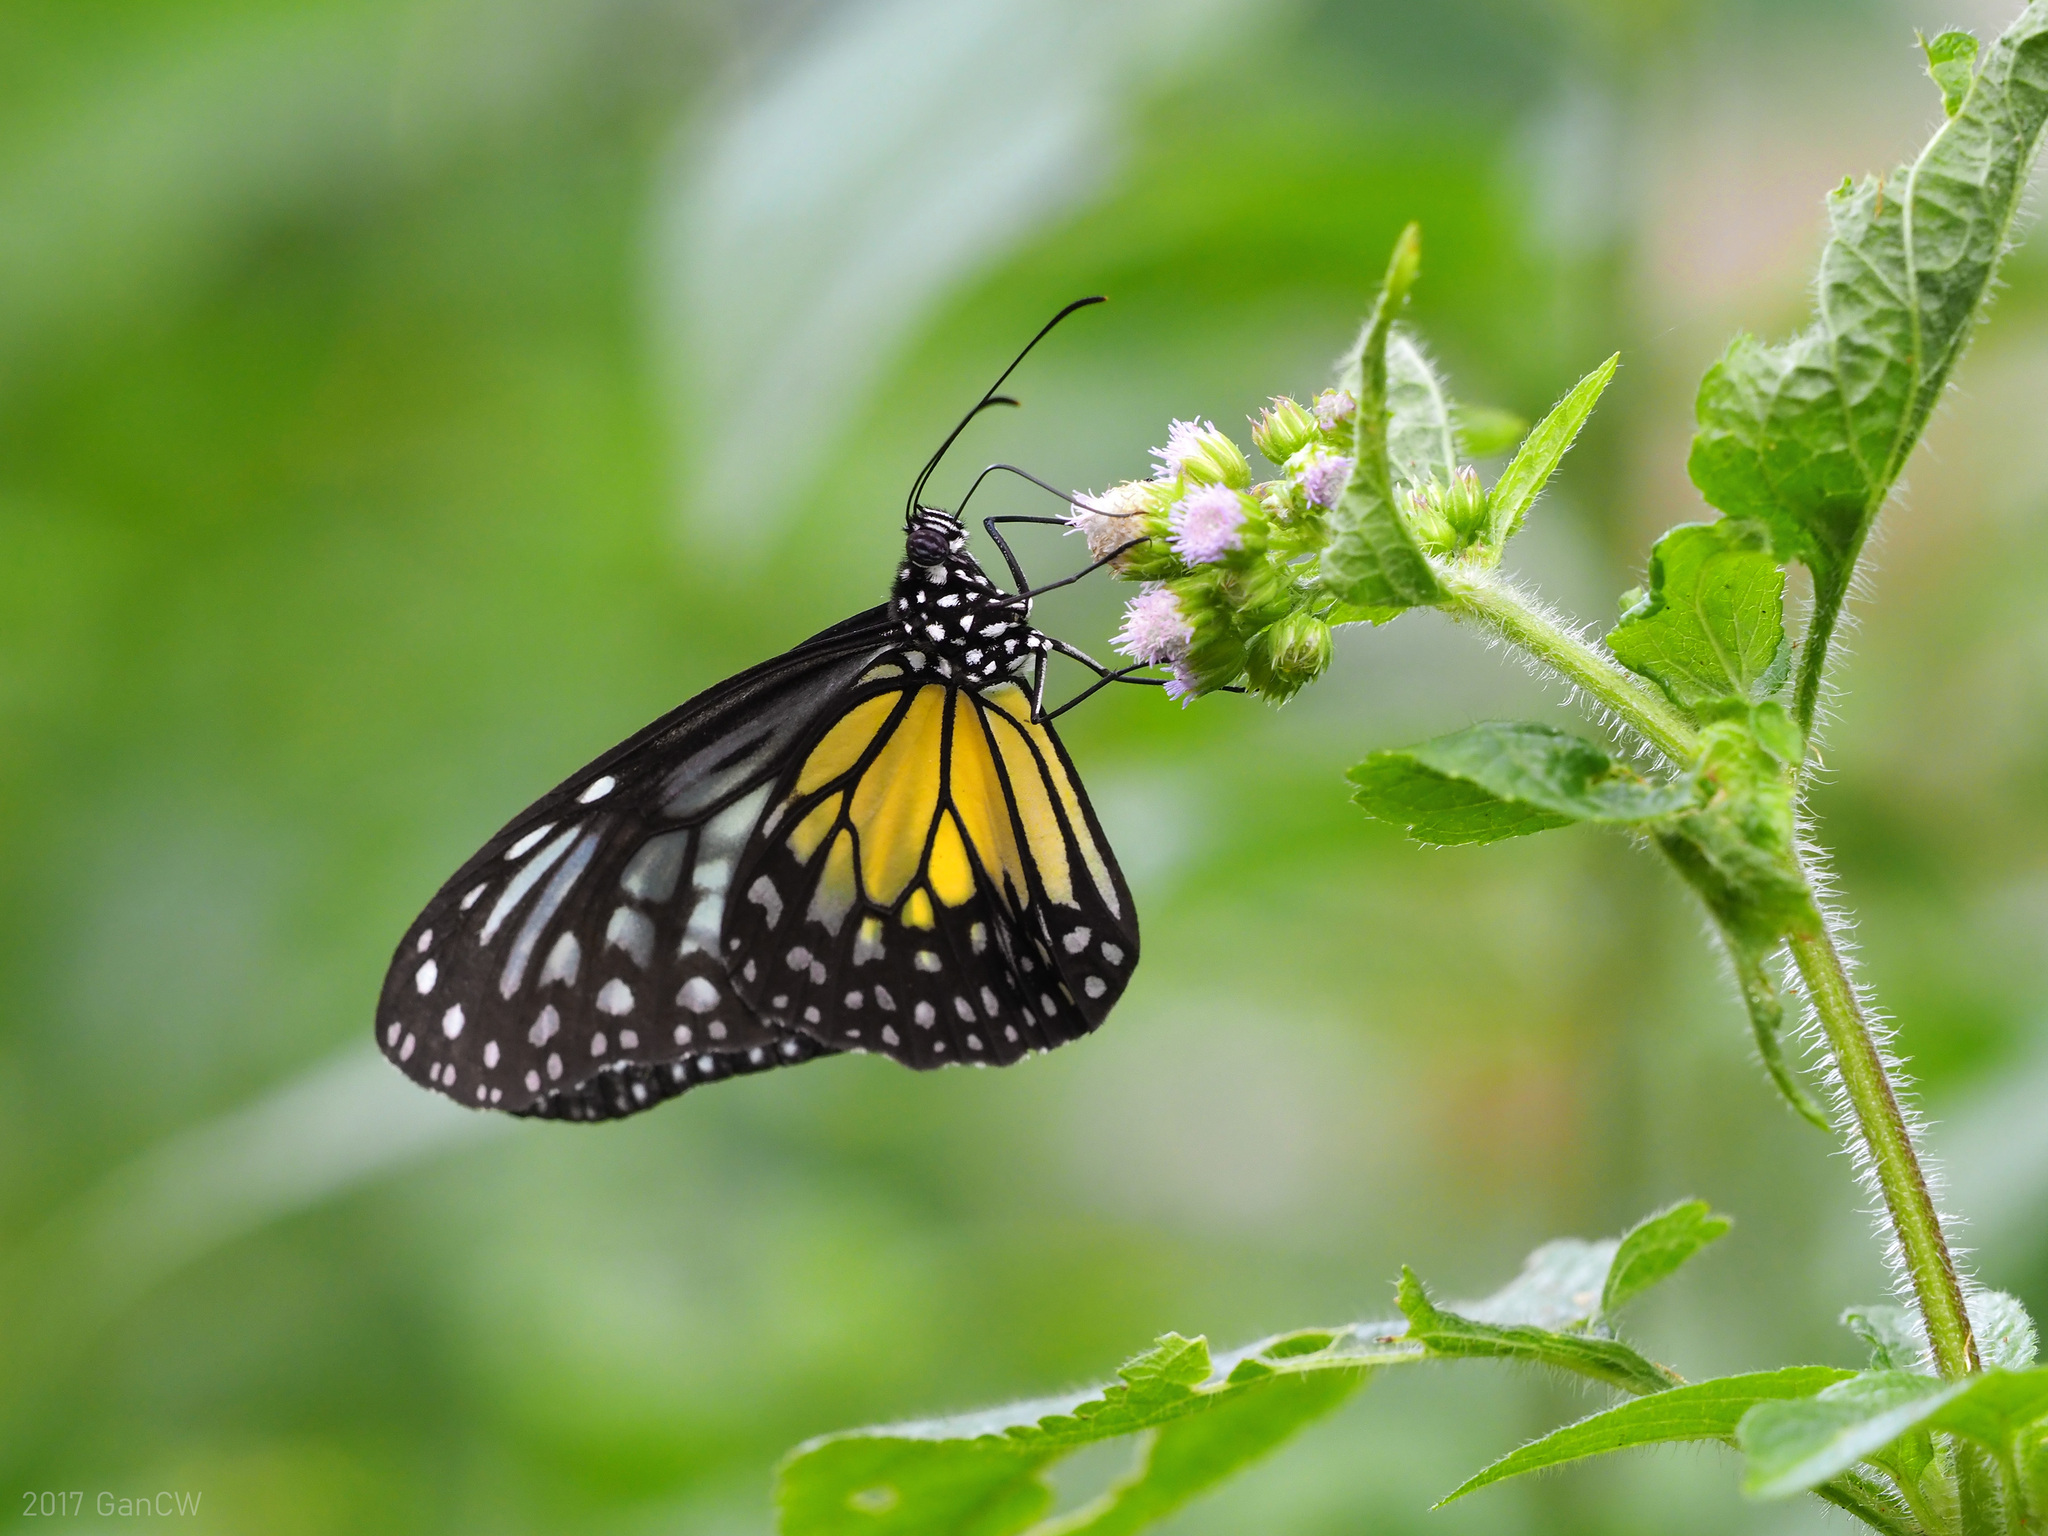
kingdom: Animalia
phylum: Arthropoda
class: Insecta
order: Lepidoptera
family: Nymphalidae
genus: Parantica
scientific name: Parantica aspasia
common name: Yellow glassy tiger
